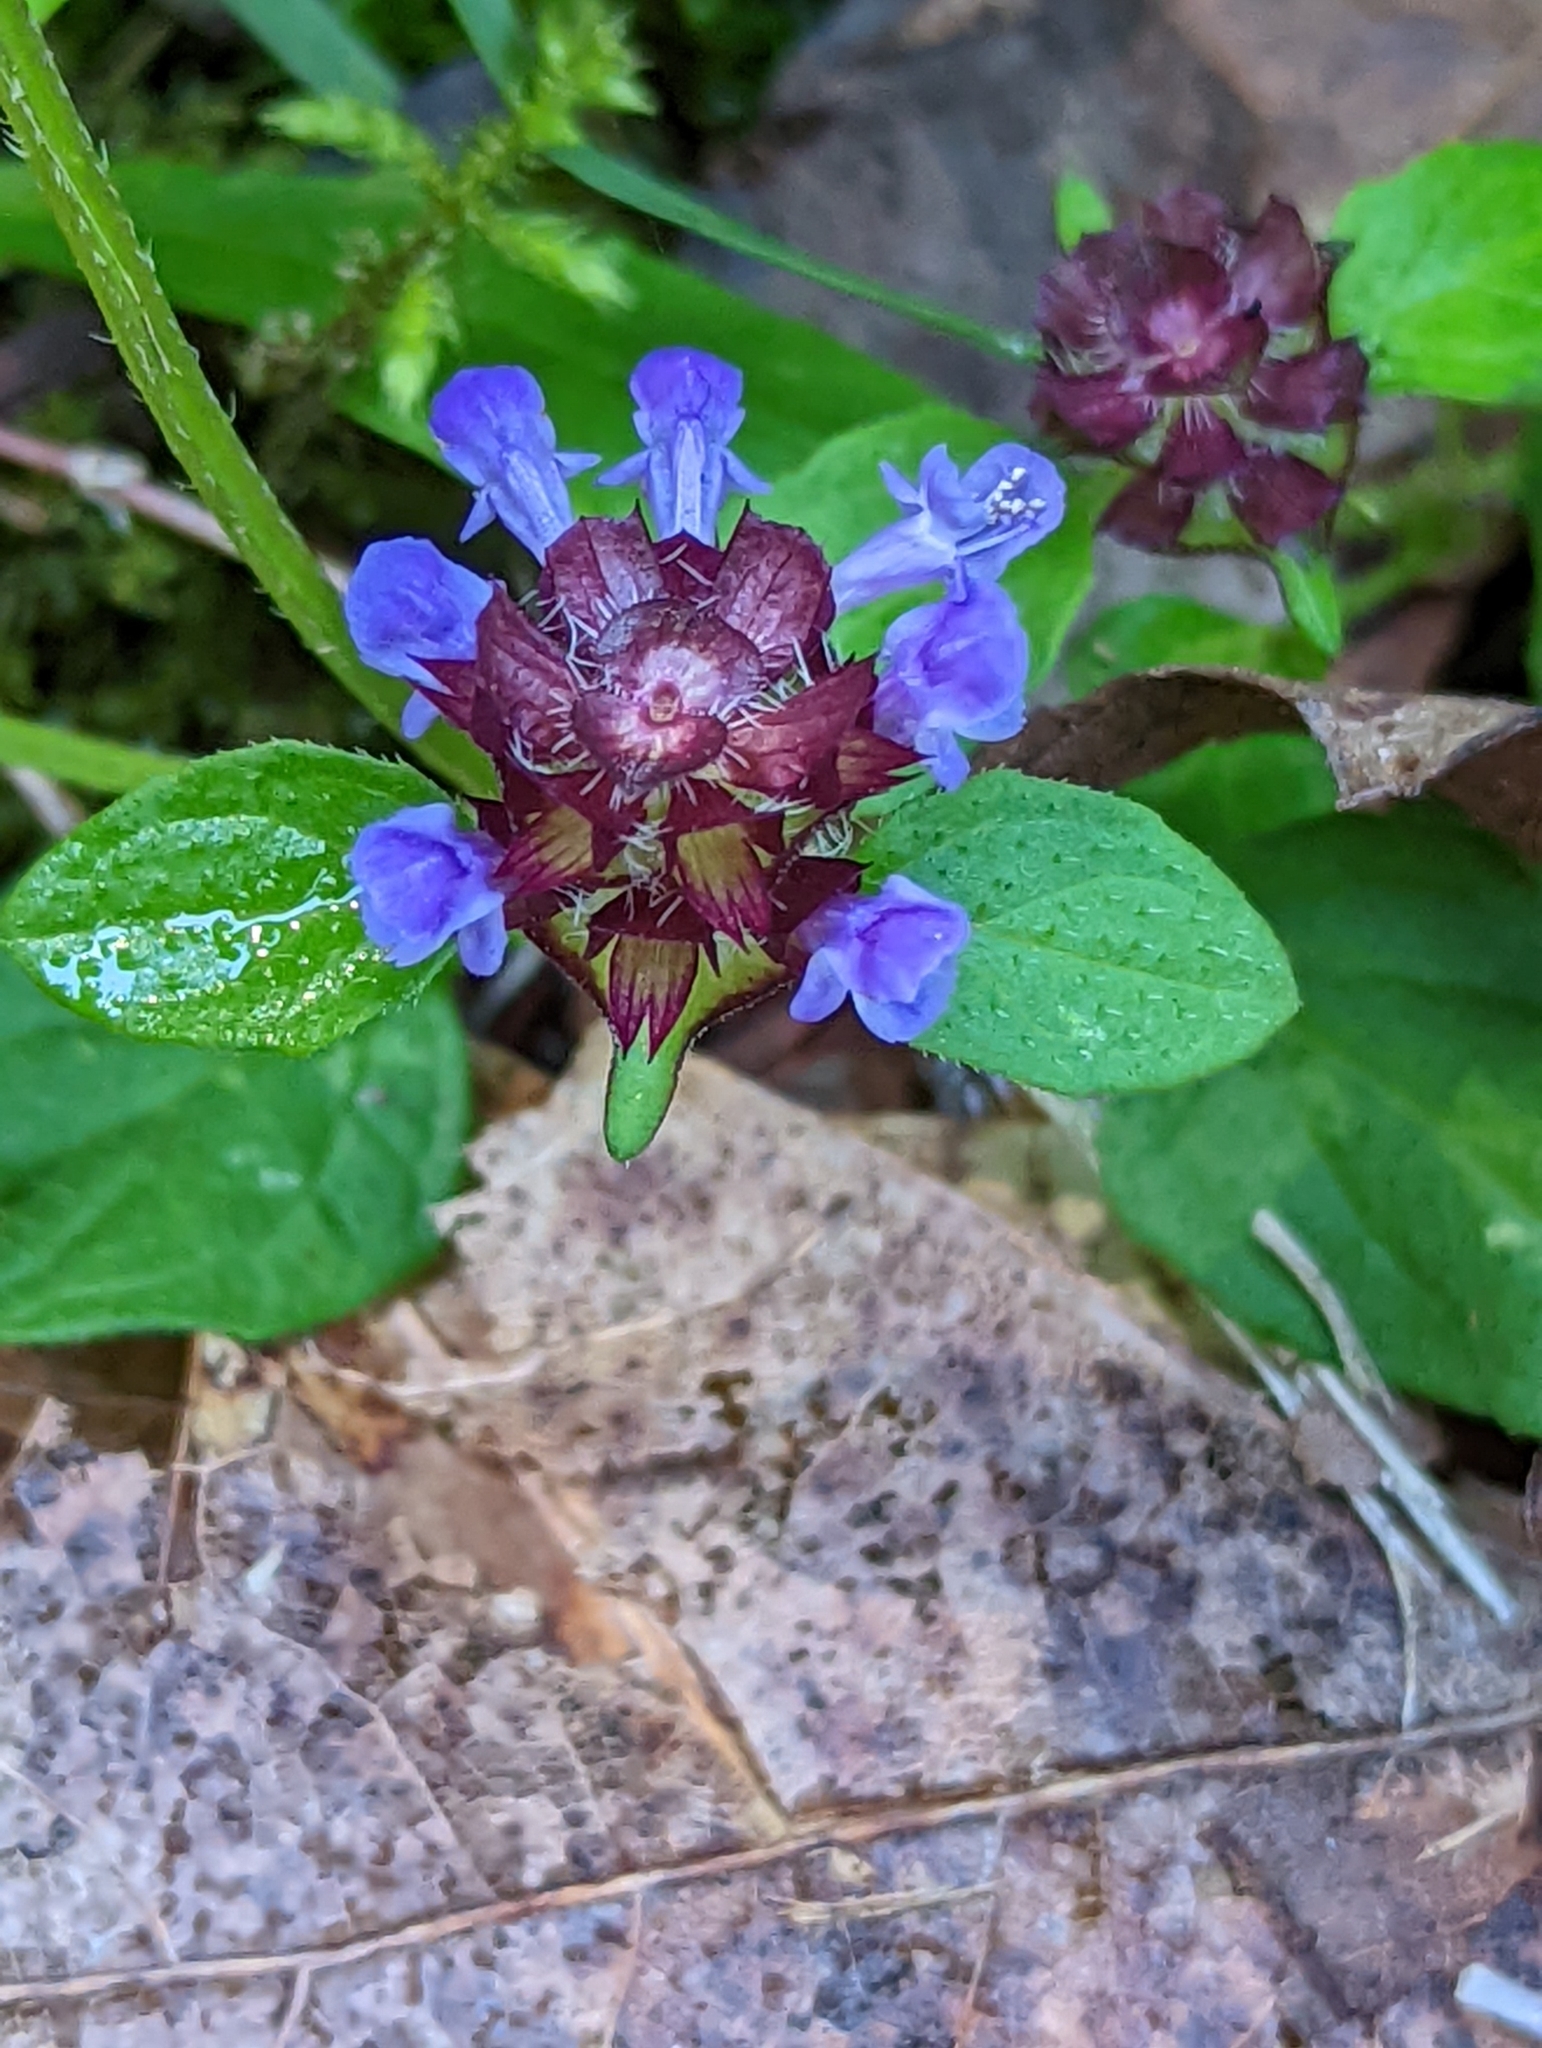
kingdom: Plantae
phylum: Tracheophyta
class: Magnoliopsida
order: Lamiales
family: Lamiaceae
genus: Prunella
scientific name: Prunella vulgaris
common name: Heal-all
